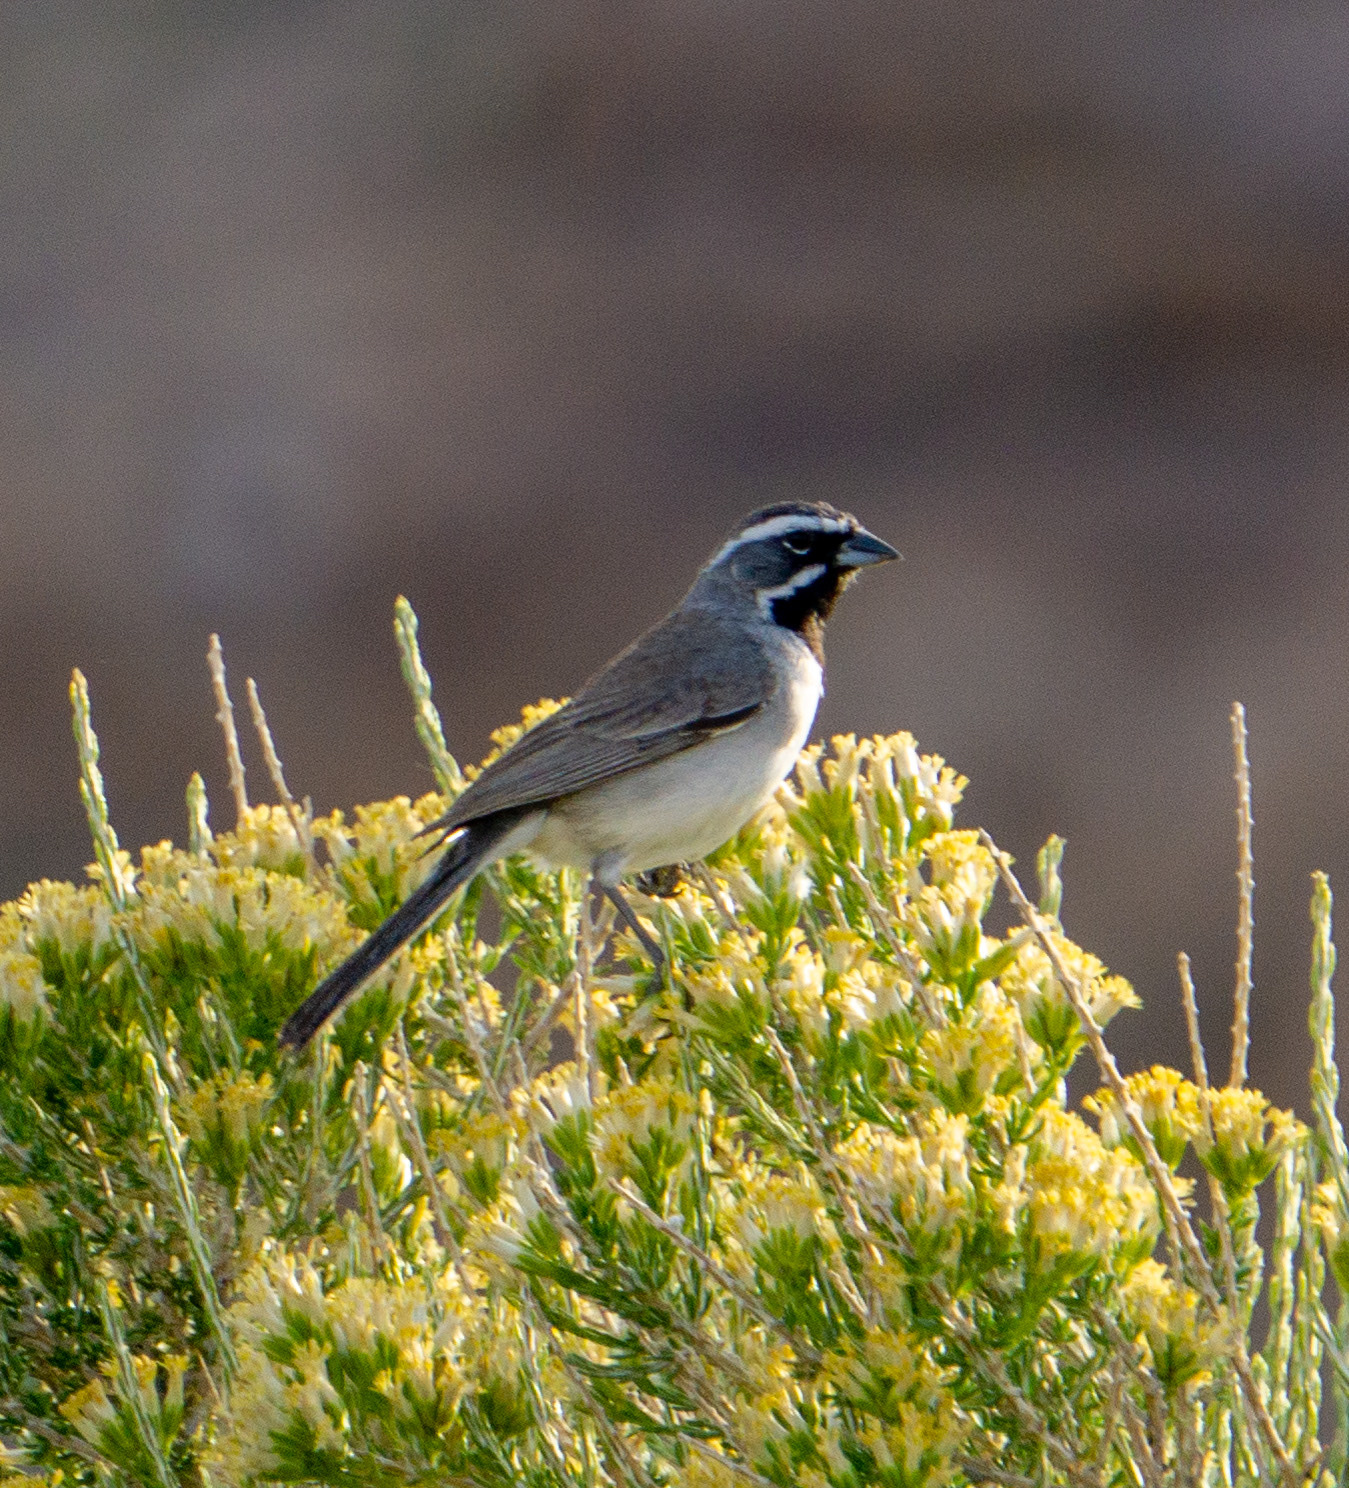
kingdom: Animalia
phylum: Chordata
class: Aves
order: Passeriformes
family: Passerellidae
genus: Amphispiza
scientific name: Amphispiza bilineata
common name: Black-throated sparrow
